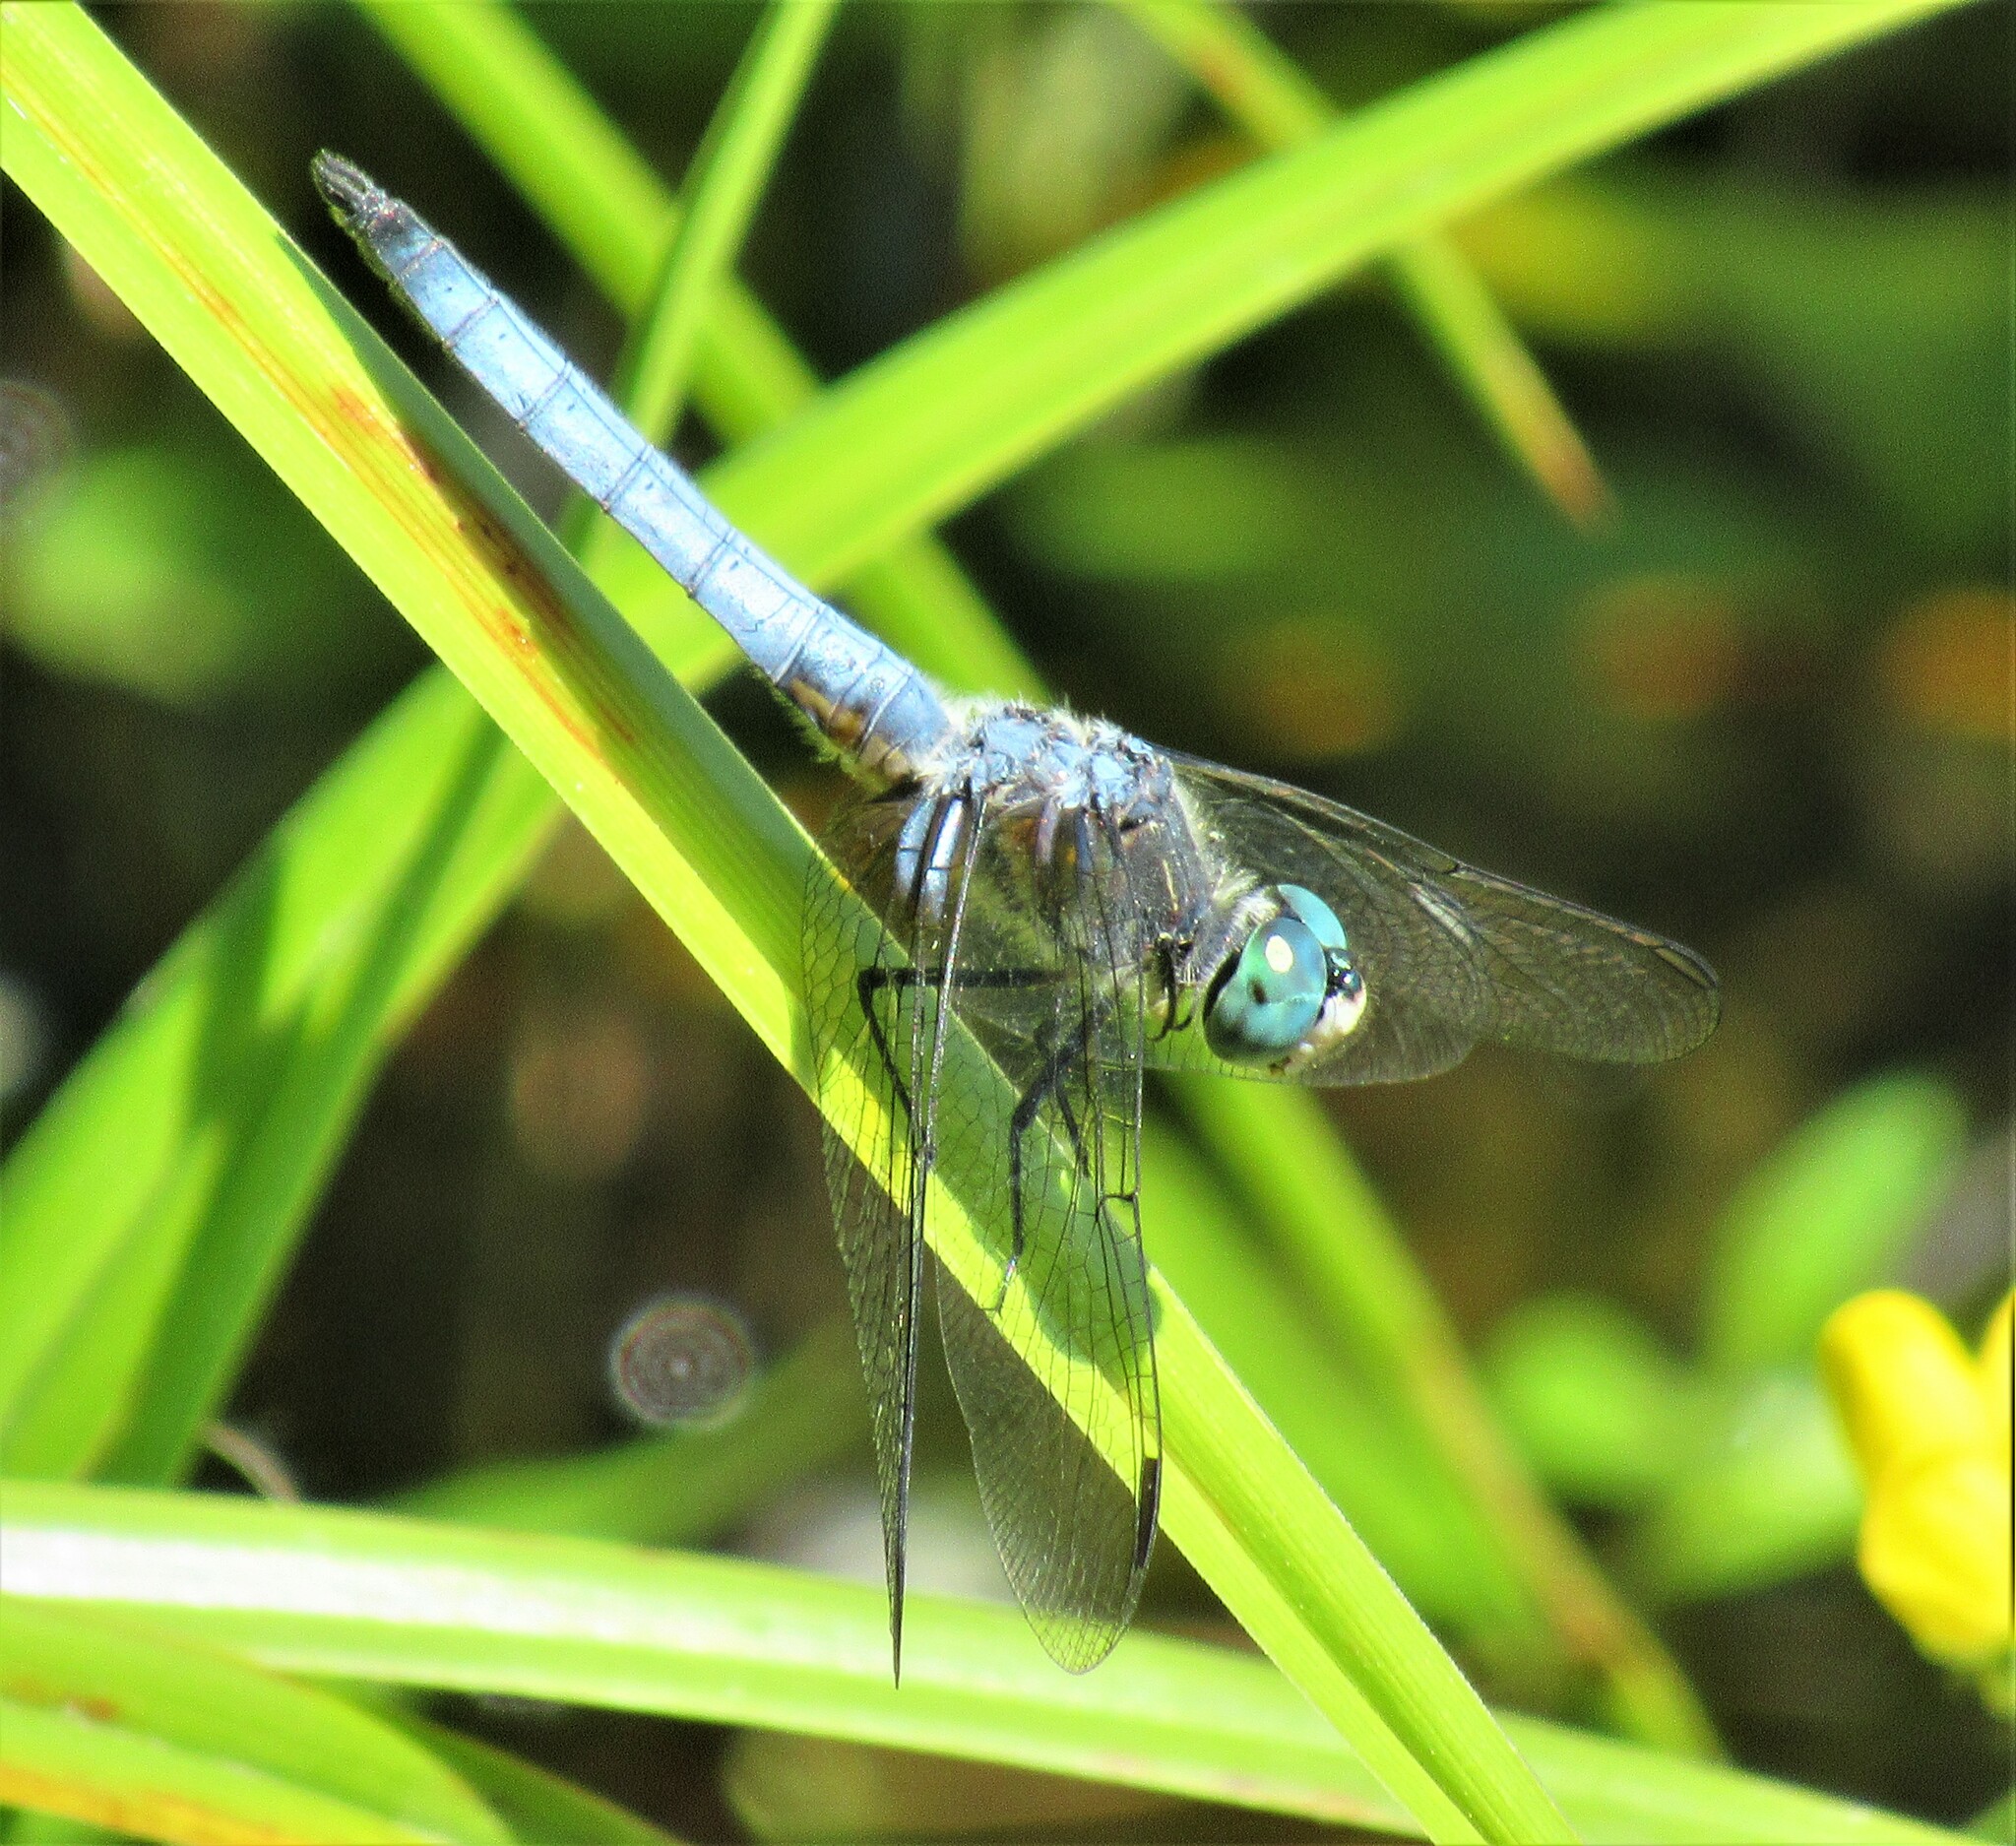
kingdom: Animalia
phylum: Arthropoda
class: Insecta
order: Odonata
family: Libellulidae
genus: Pachydiplax
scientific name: Pachydiplax longipennis
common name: Blue dasher
